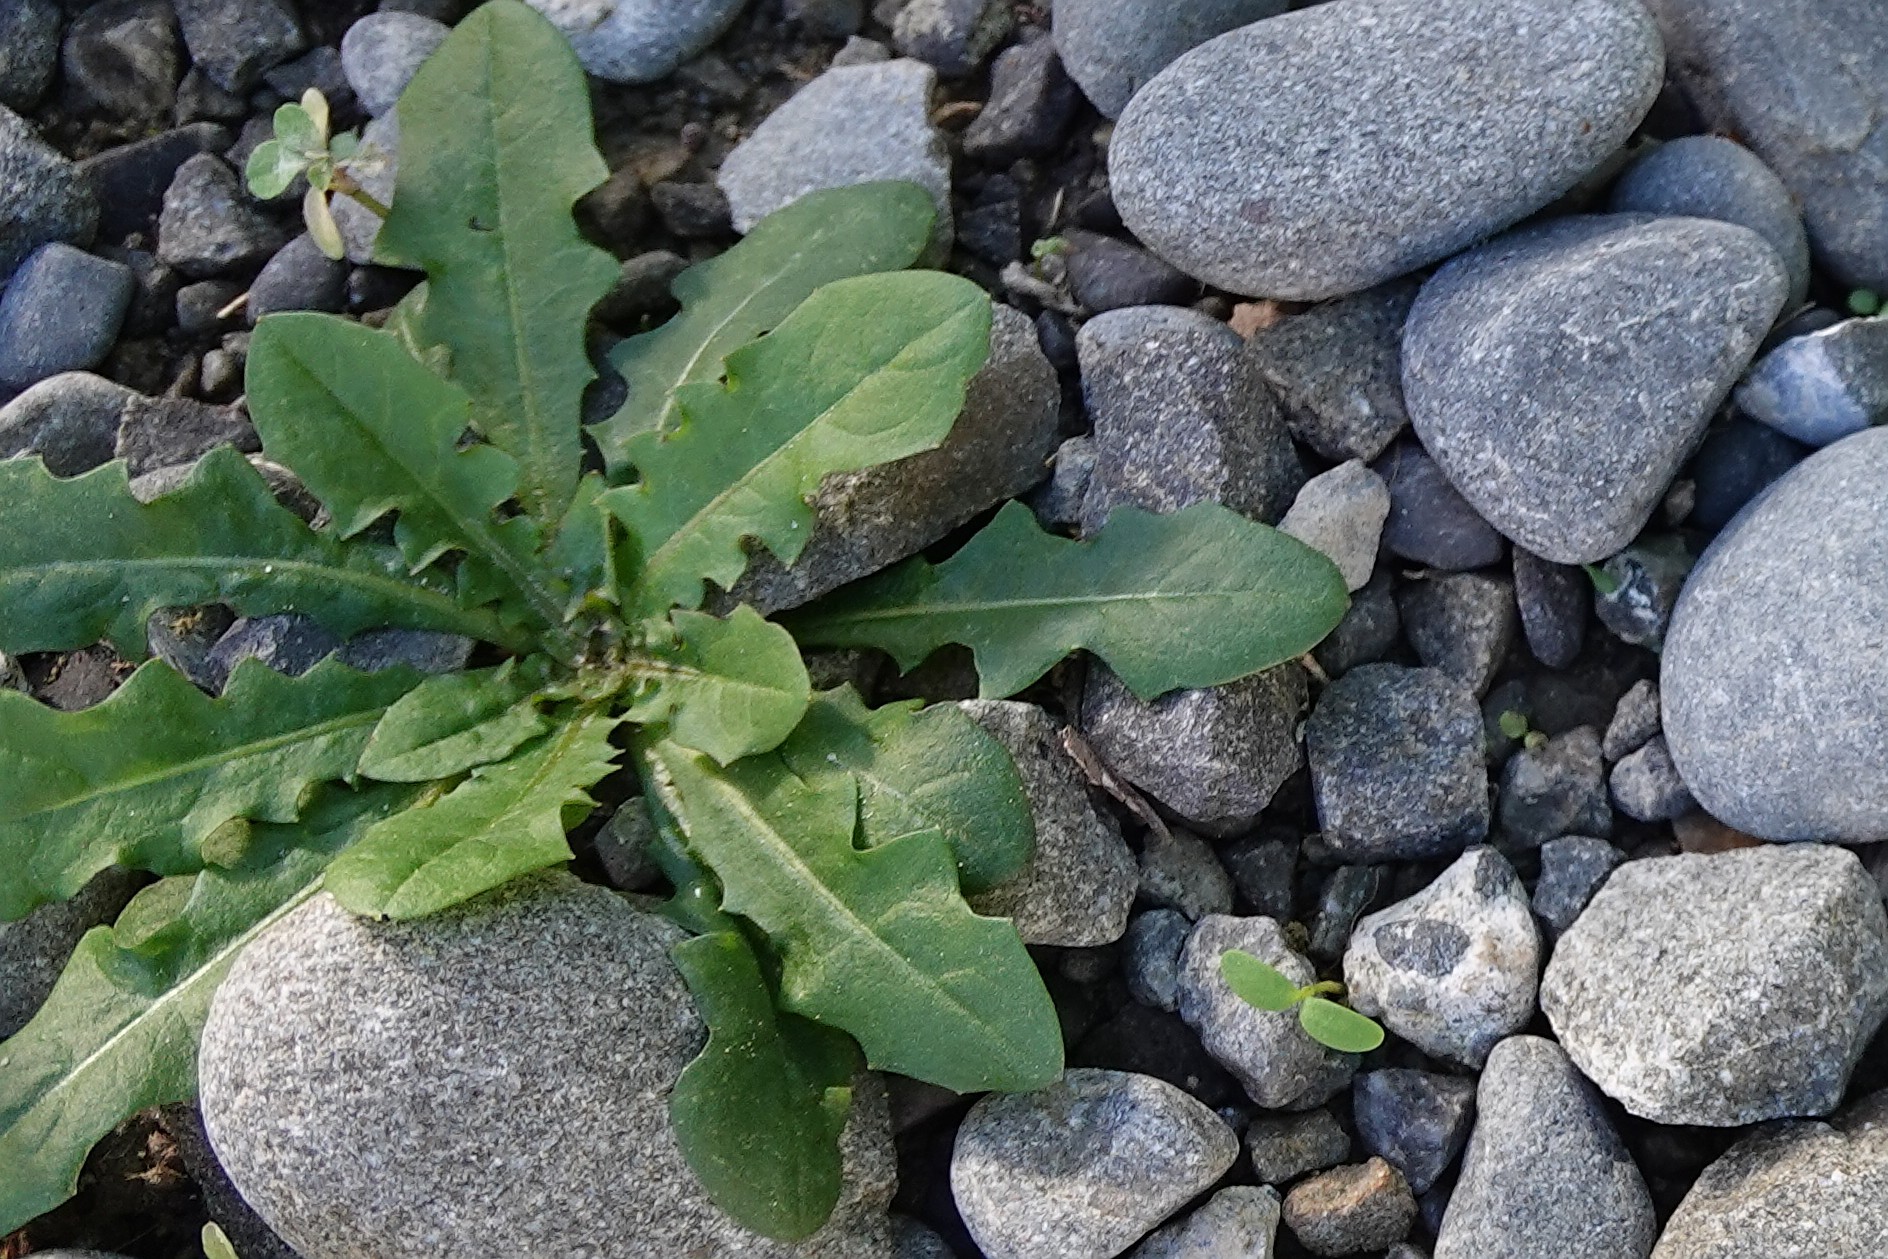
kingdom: Plantae
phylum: Tracheophyta
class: Magnoliopsida
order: Asterales
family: Asteraceae
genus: Taraxacum
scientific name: Taraxacum officinale
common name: Common dandelion
